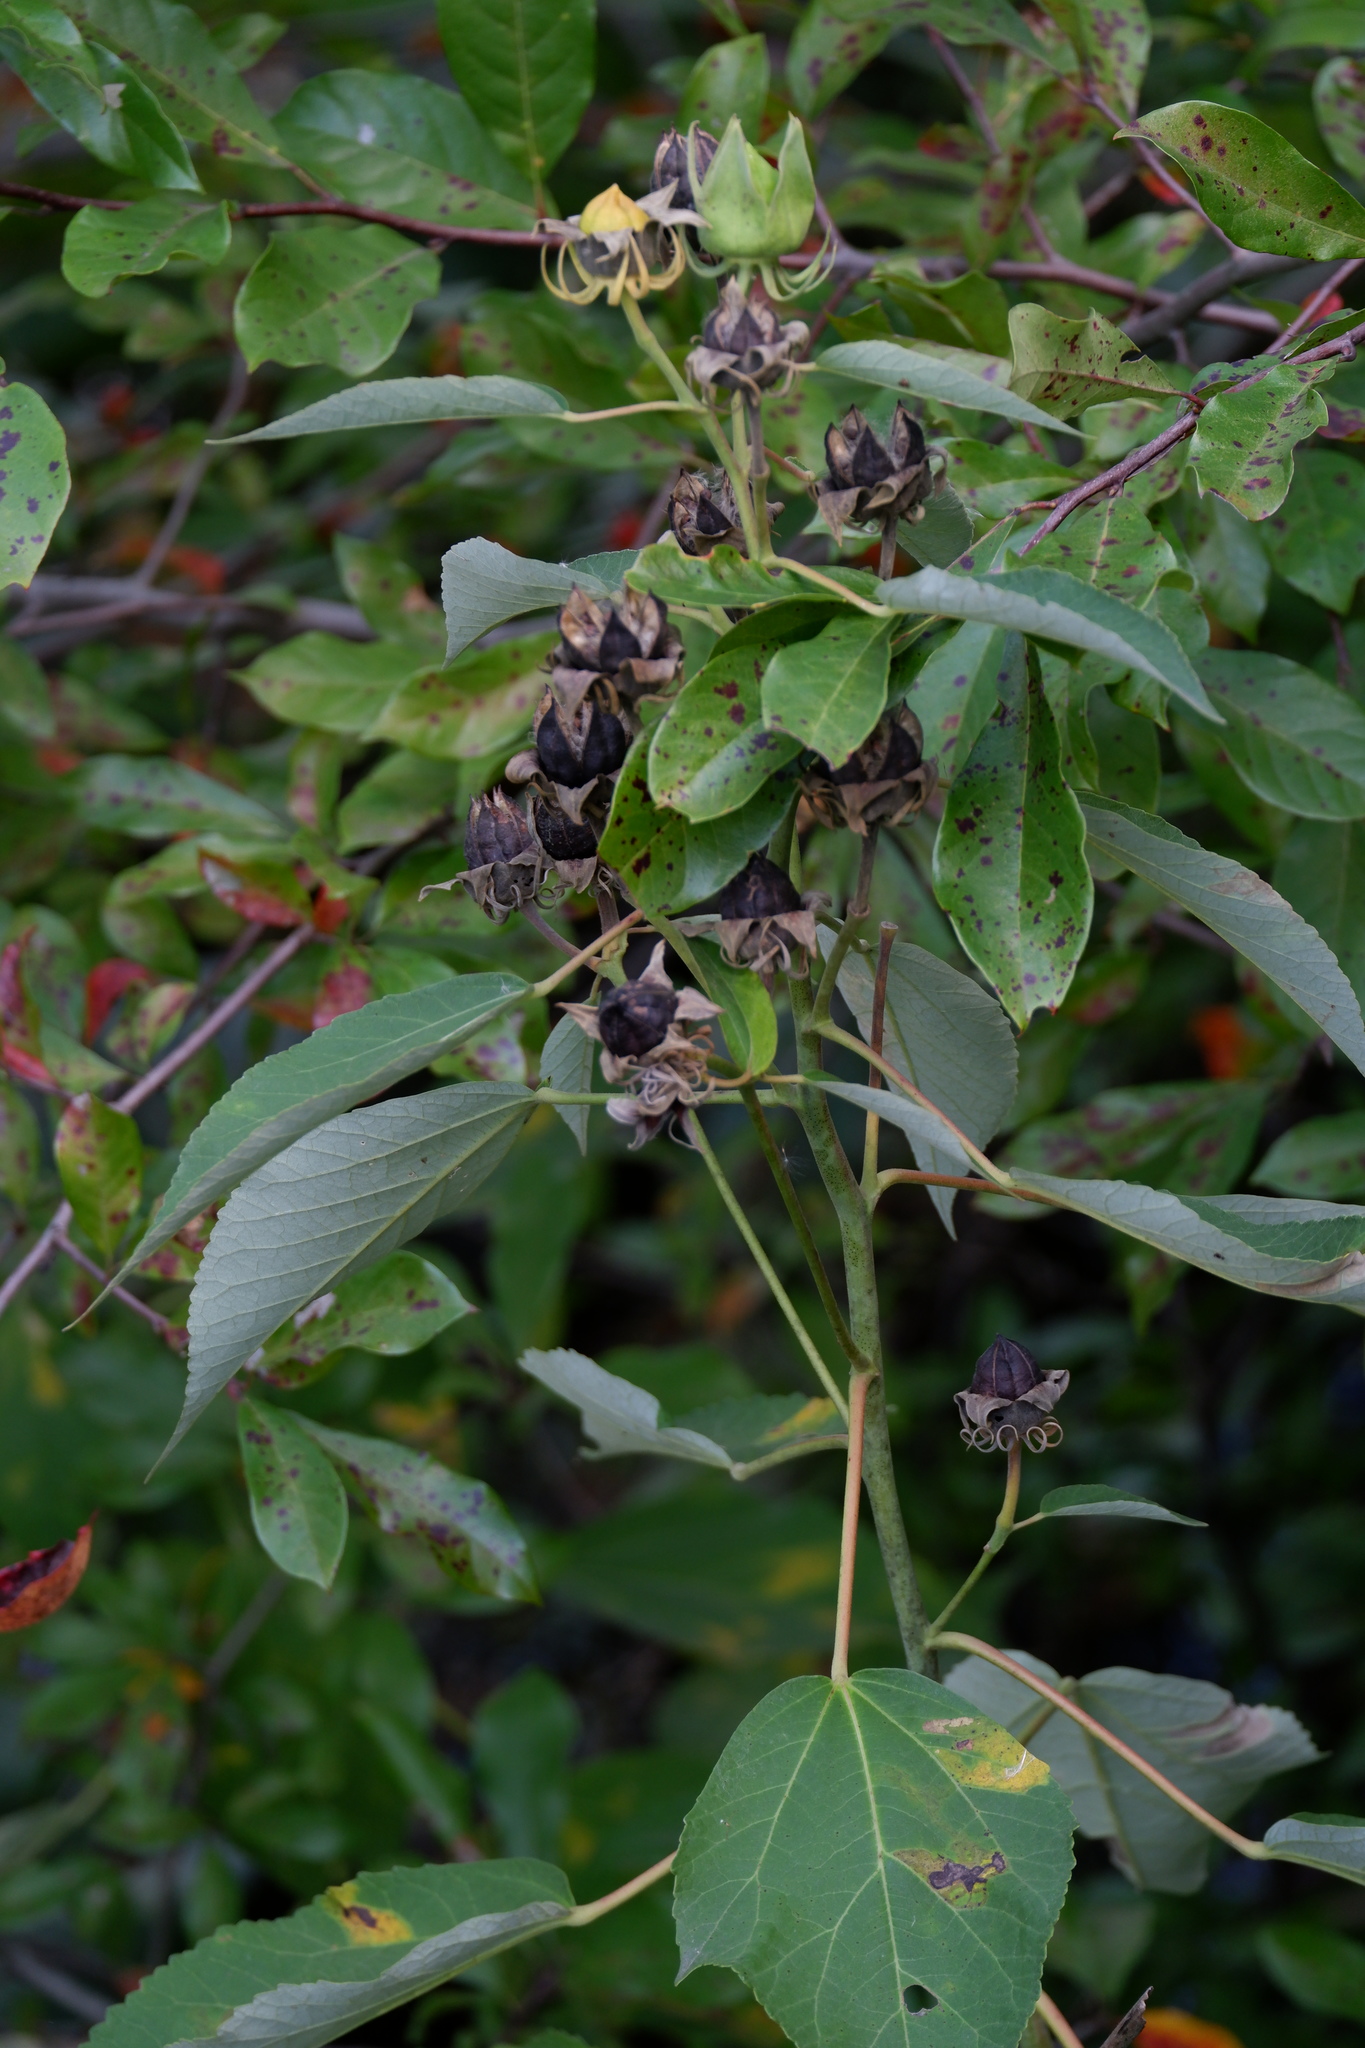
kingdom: Plantae
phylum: Tracheophyta
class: Magnoliopsida
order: Malvales
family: Malvaceae
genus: Hibiscus
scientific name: Hibiscus moscheutos
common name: Common rose-mallow
